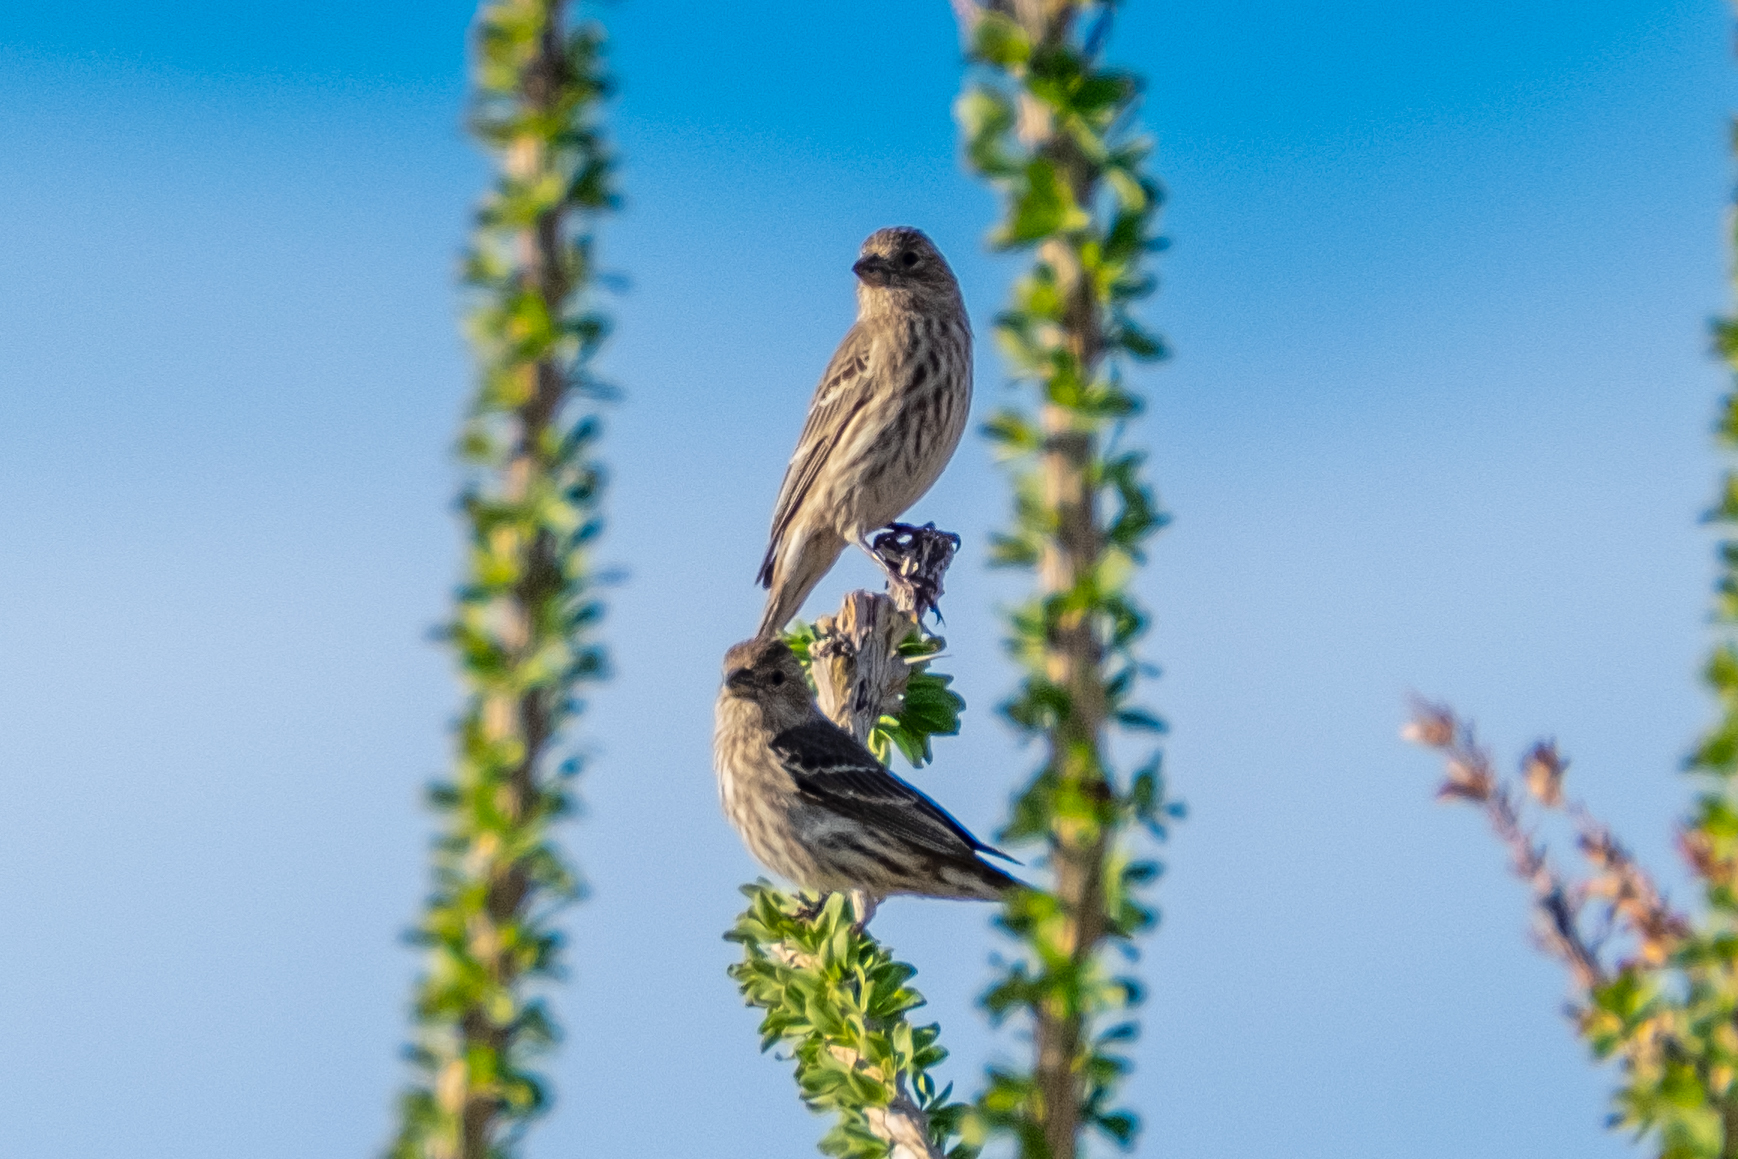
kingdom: Animalia
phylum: Chordata
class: Aves
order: Passeriformes
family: Fringillidae
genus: Haemorhous
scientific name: Haemorhous mexicanus
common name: House finch
